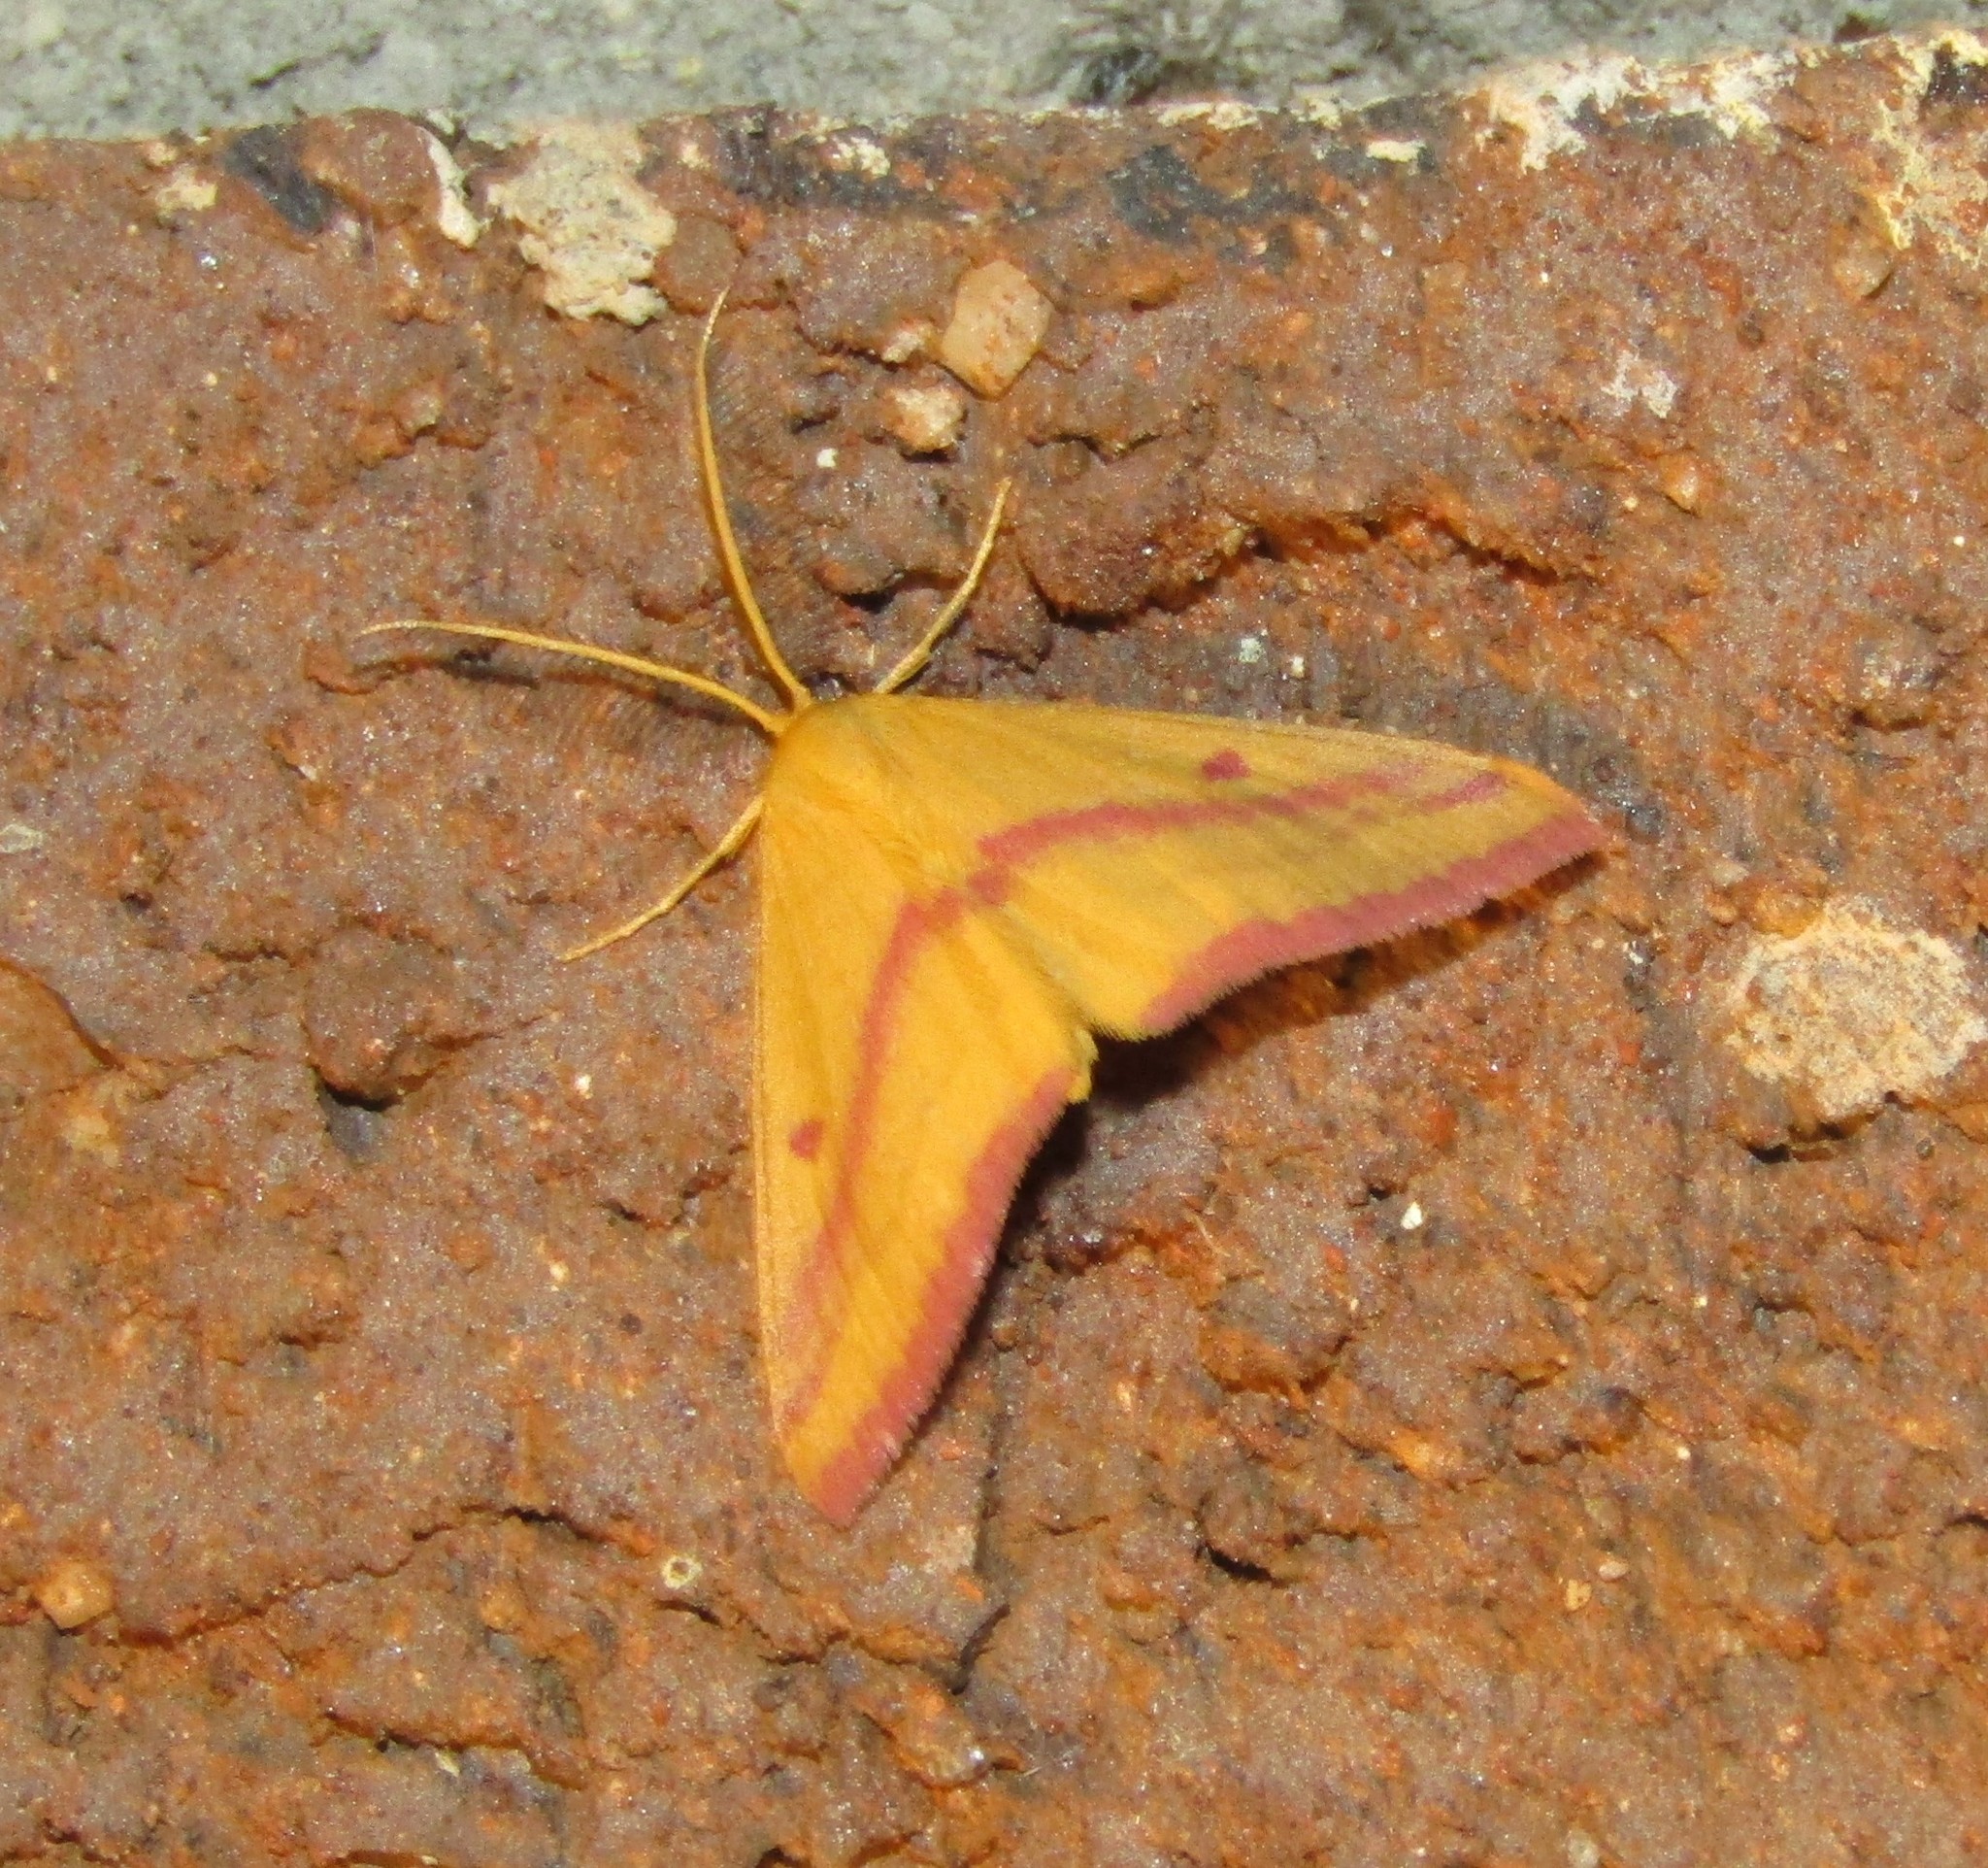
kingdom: Animalia
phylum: Arthropoda
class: Insecta
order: Lepidoptera
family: Geometridae
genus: Haematopis
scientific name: Haematopis grataria
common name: Chickweed geometer
